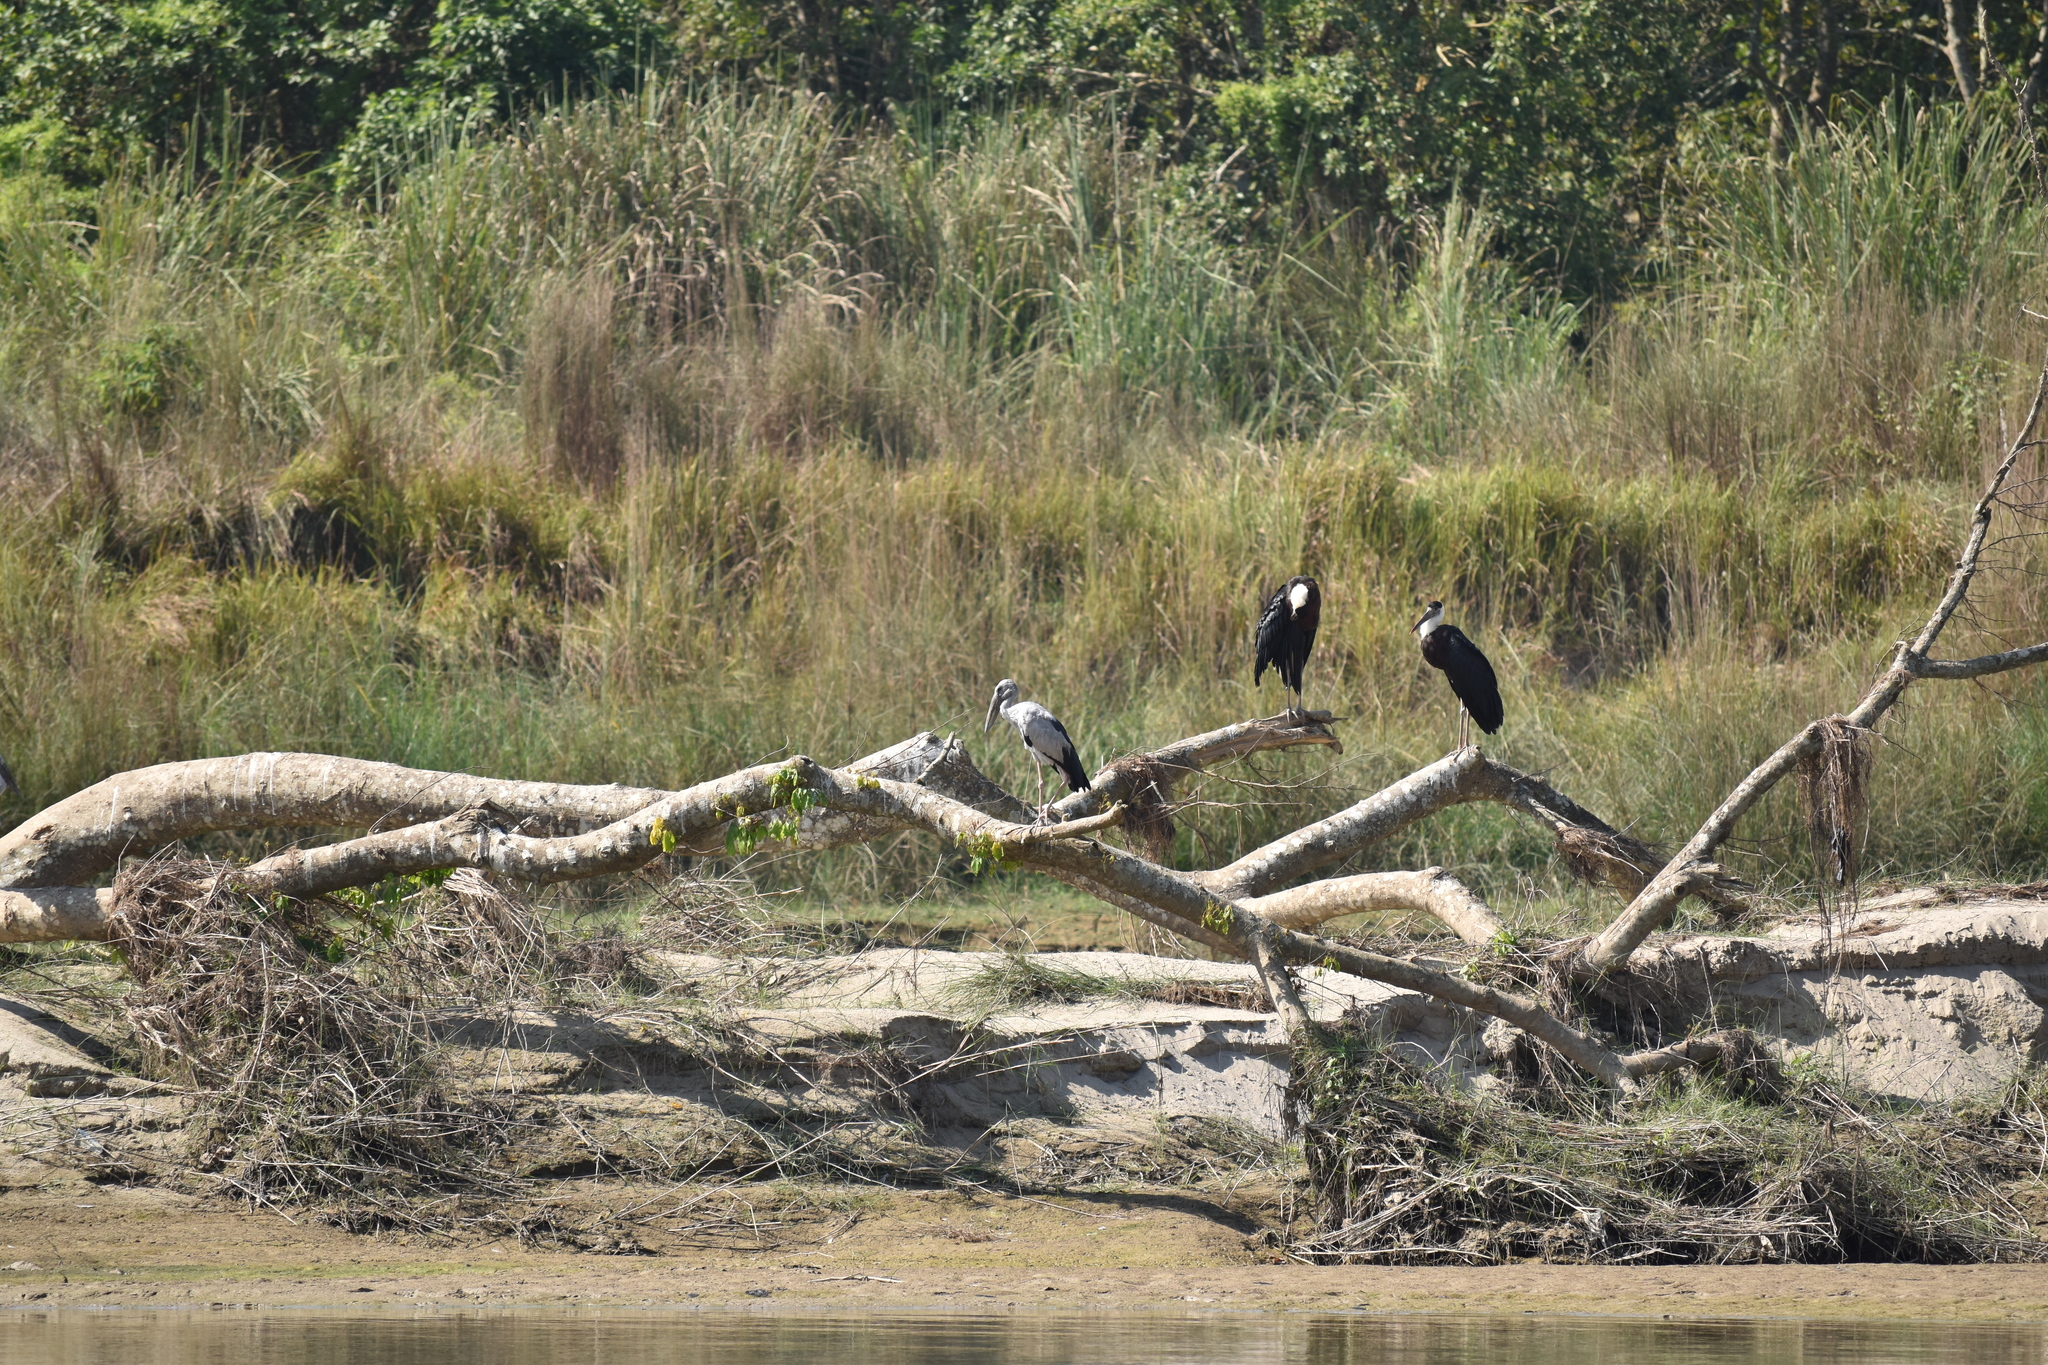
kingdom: Animalia
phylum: Chordata
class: Aves
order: Ciconiiformes
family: Ciconiidae
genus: Ciconia
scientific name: Ciconia episcopus
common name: Woolly-necked stork
